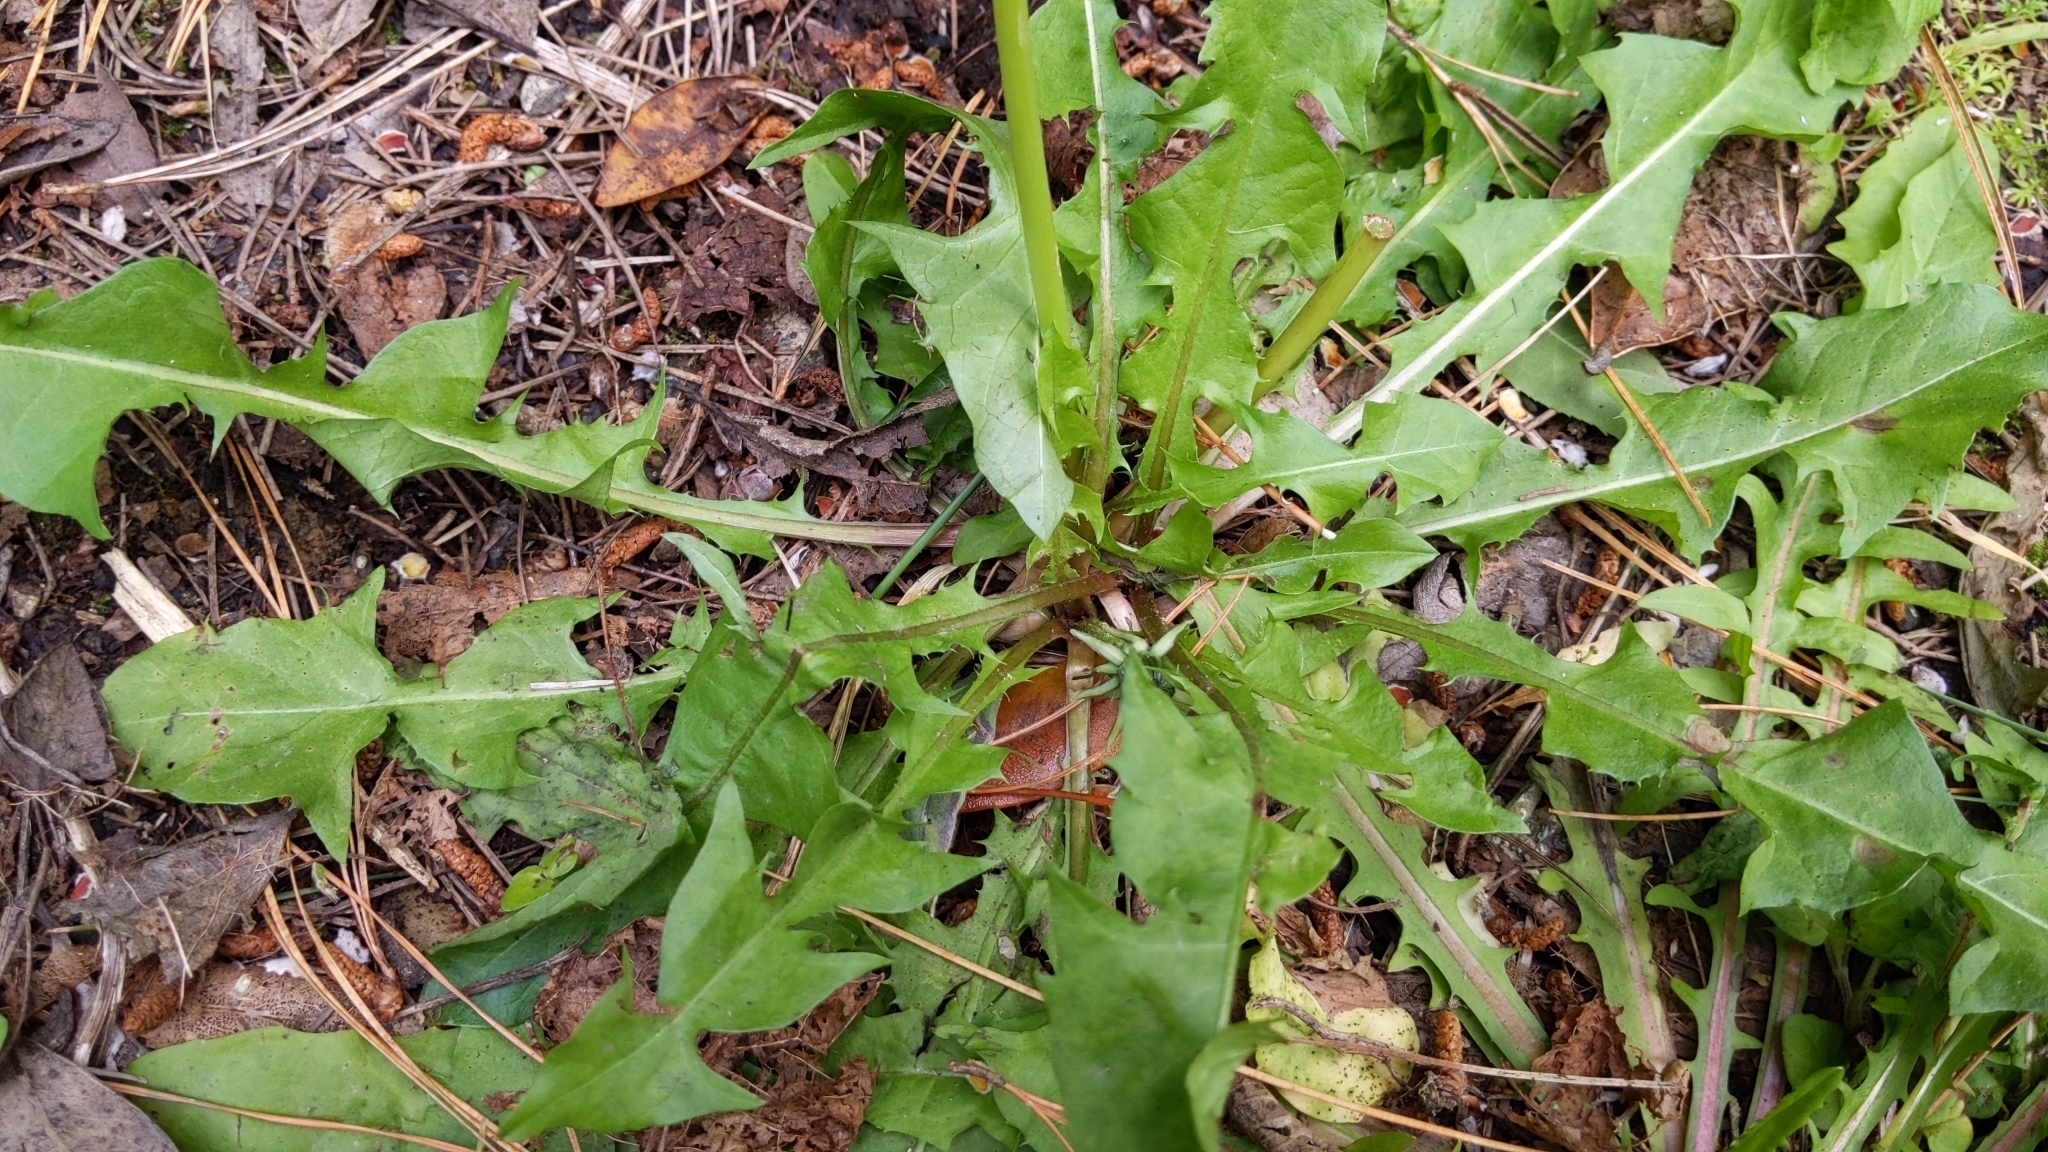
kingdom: Plantae
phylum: Tracheophyta
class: Magnoliopsida
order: Asterales
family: Asteraceae
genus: Taraxacum
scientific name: Taraxacum officinale
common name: Common dandelion
